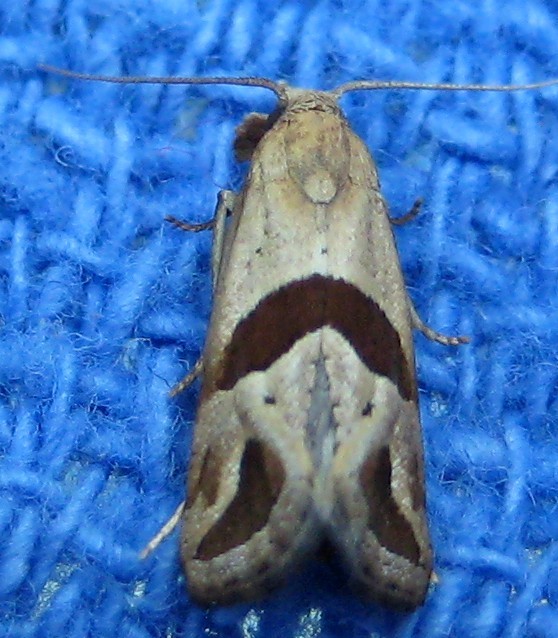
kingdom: Animalia
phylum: Arthropoda
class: Insecta
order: Lepidoptera
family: Tortricidae
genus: Eugnosta
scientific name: Eugnosta sartana
